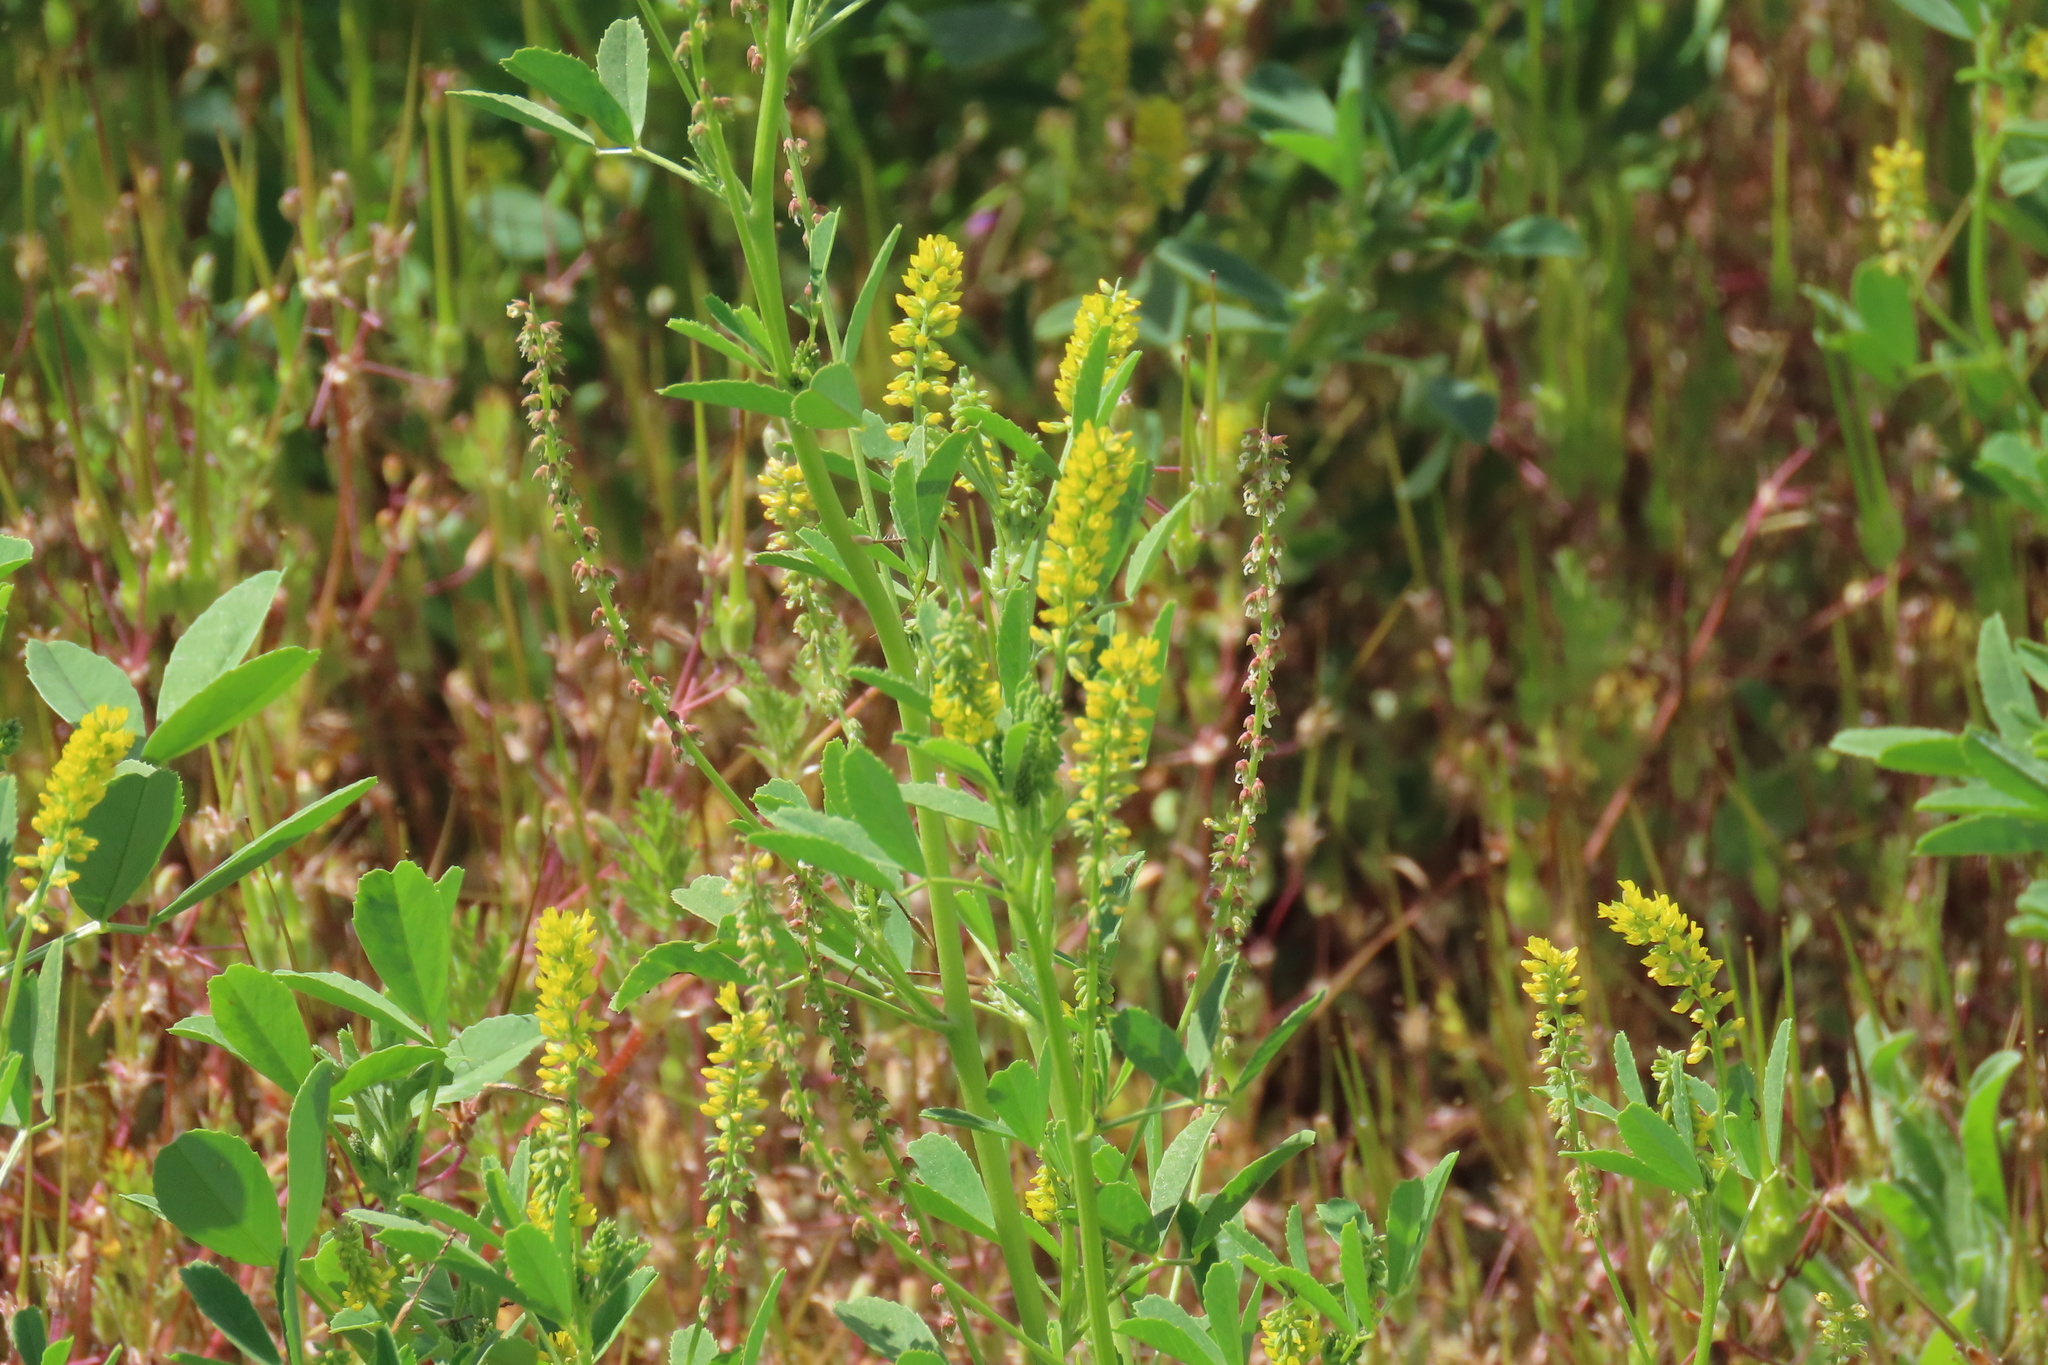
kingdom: Plantae
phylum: Tracheophyta
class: Magnoliopsida
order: Fabales
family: Fabaceae
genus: Melilotus
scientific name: Melilotus indicus
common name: Small melilot
